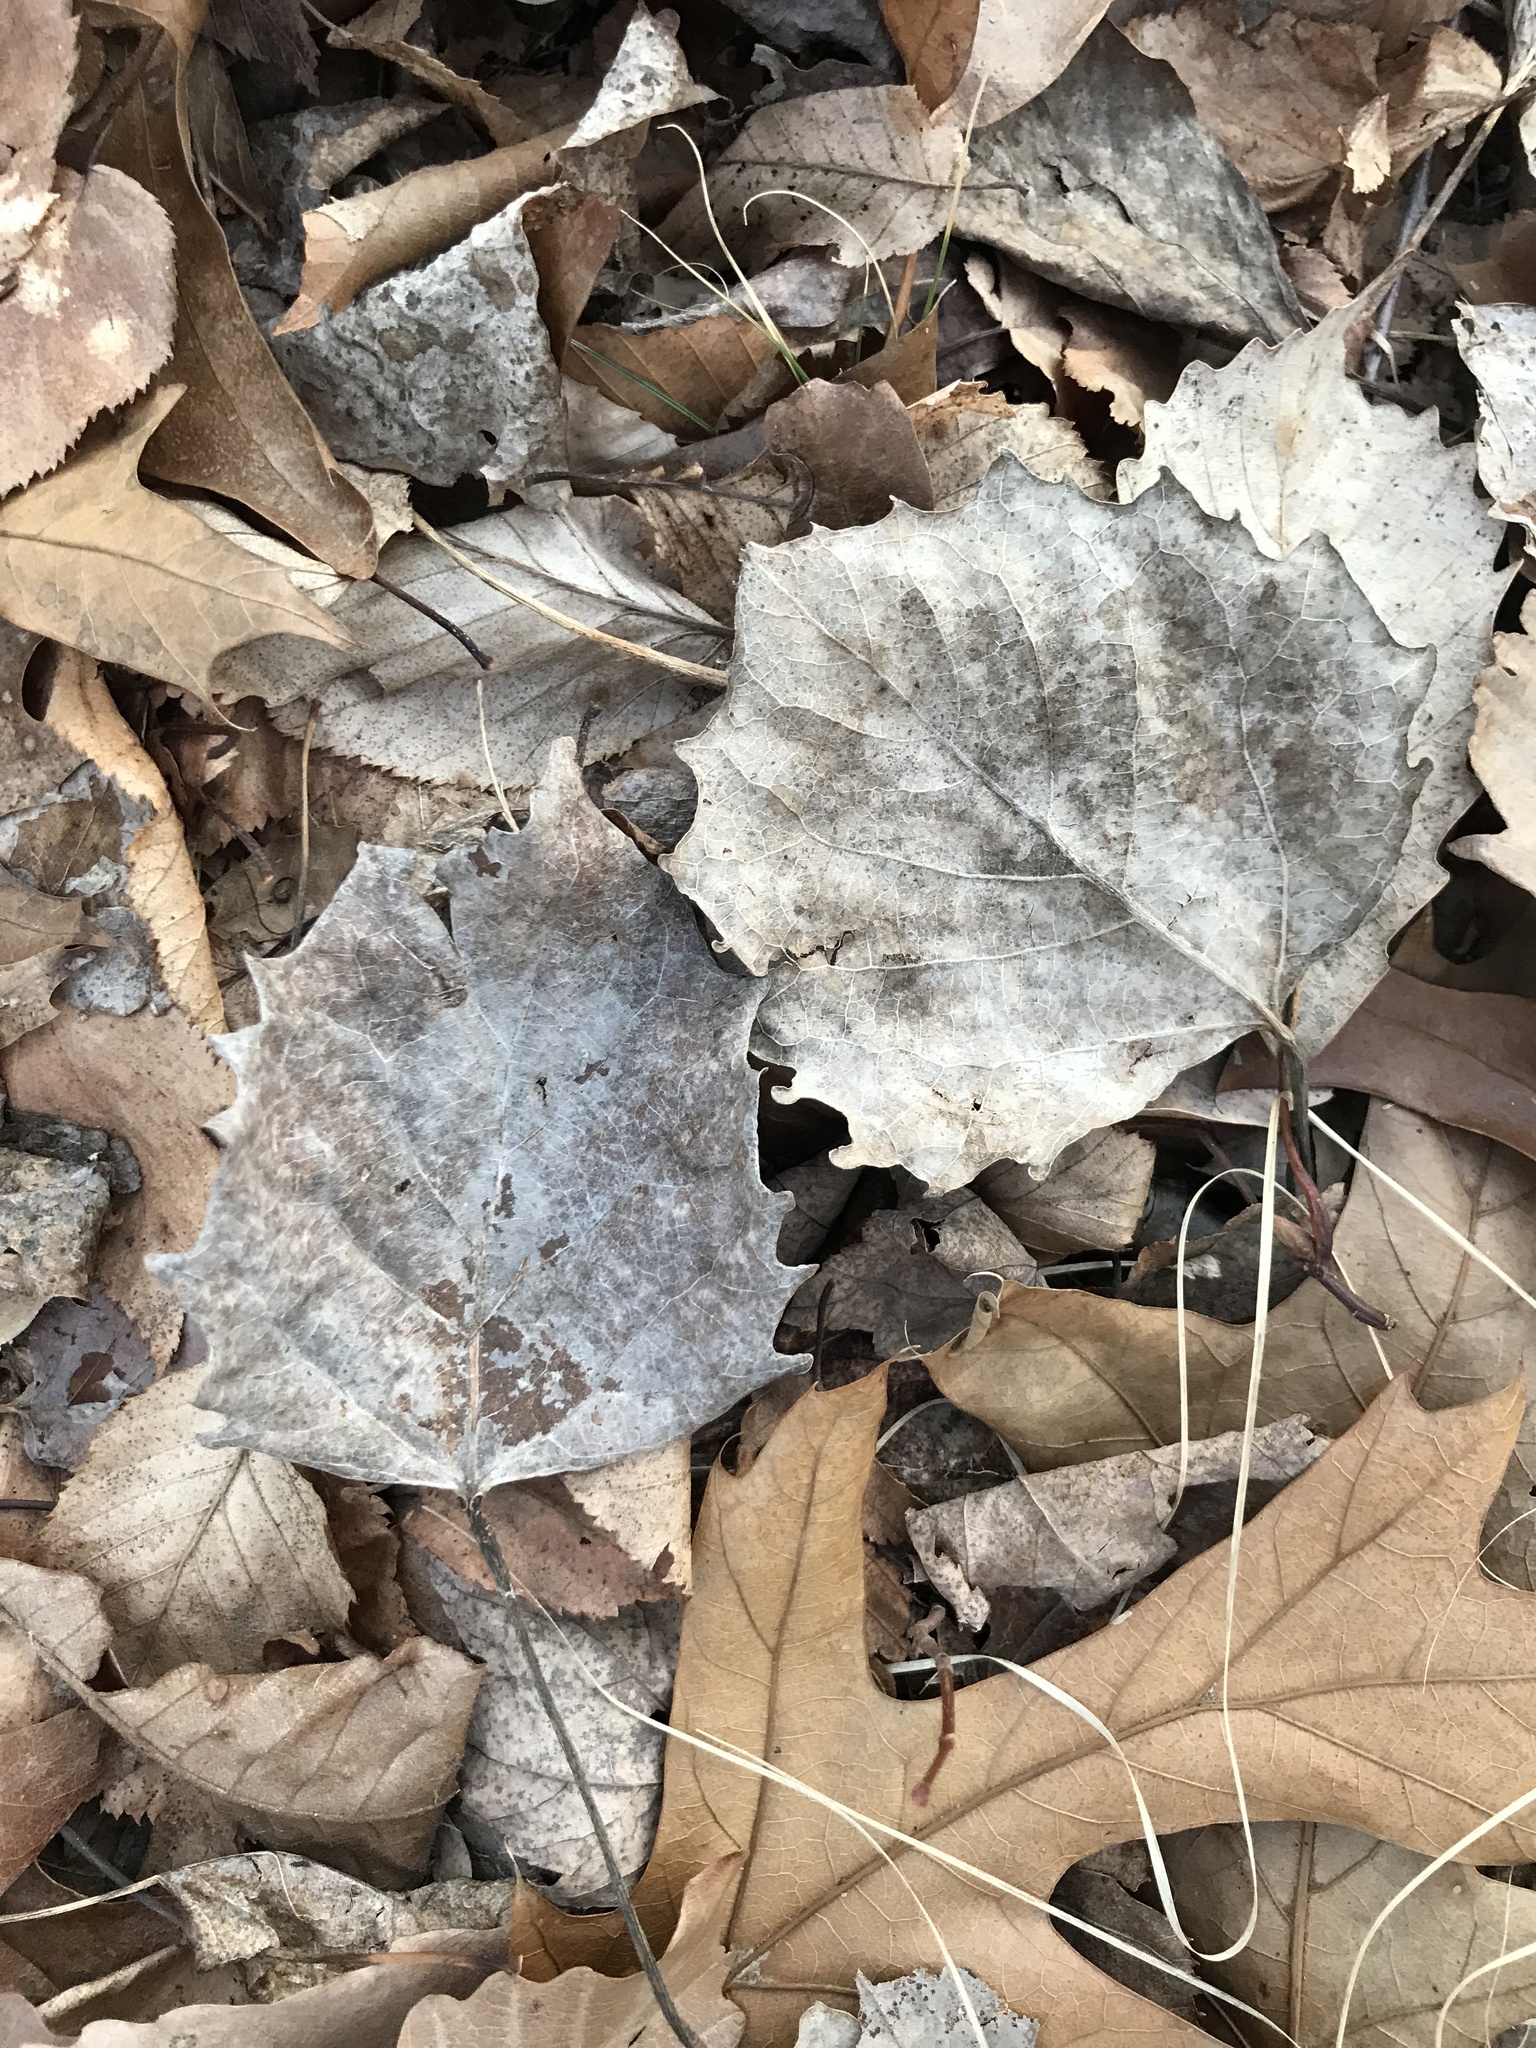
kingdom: Plantae
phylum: Tracheophyta
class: Magnoliopsida
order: Malpighiales
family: Salicaceae
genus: Populus
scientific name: Populus grandidentata
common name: Bigtooth aspen
